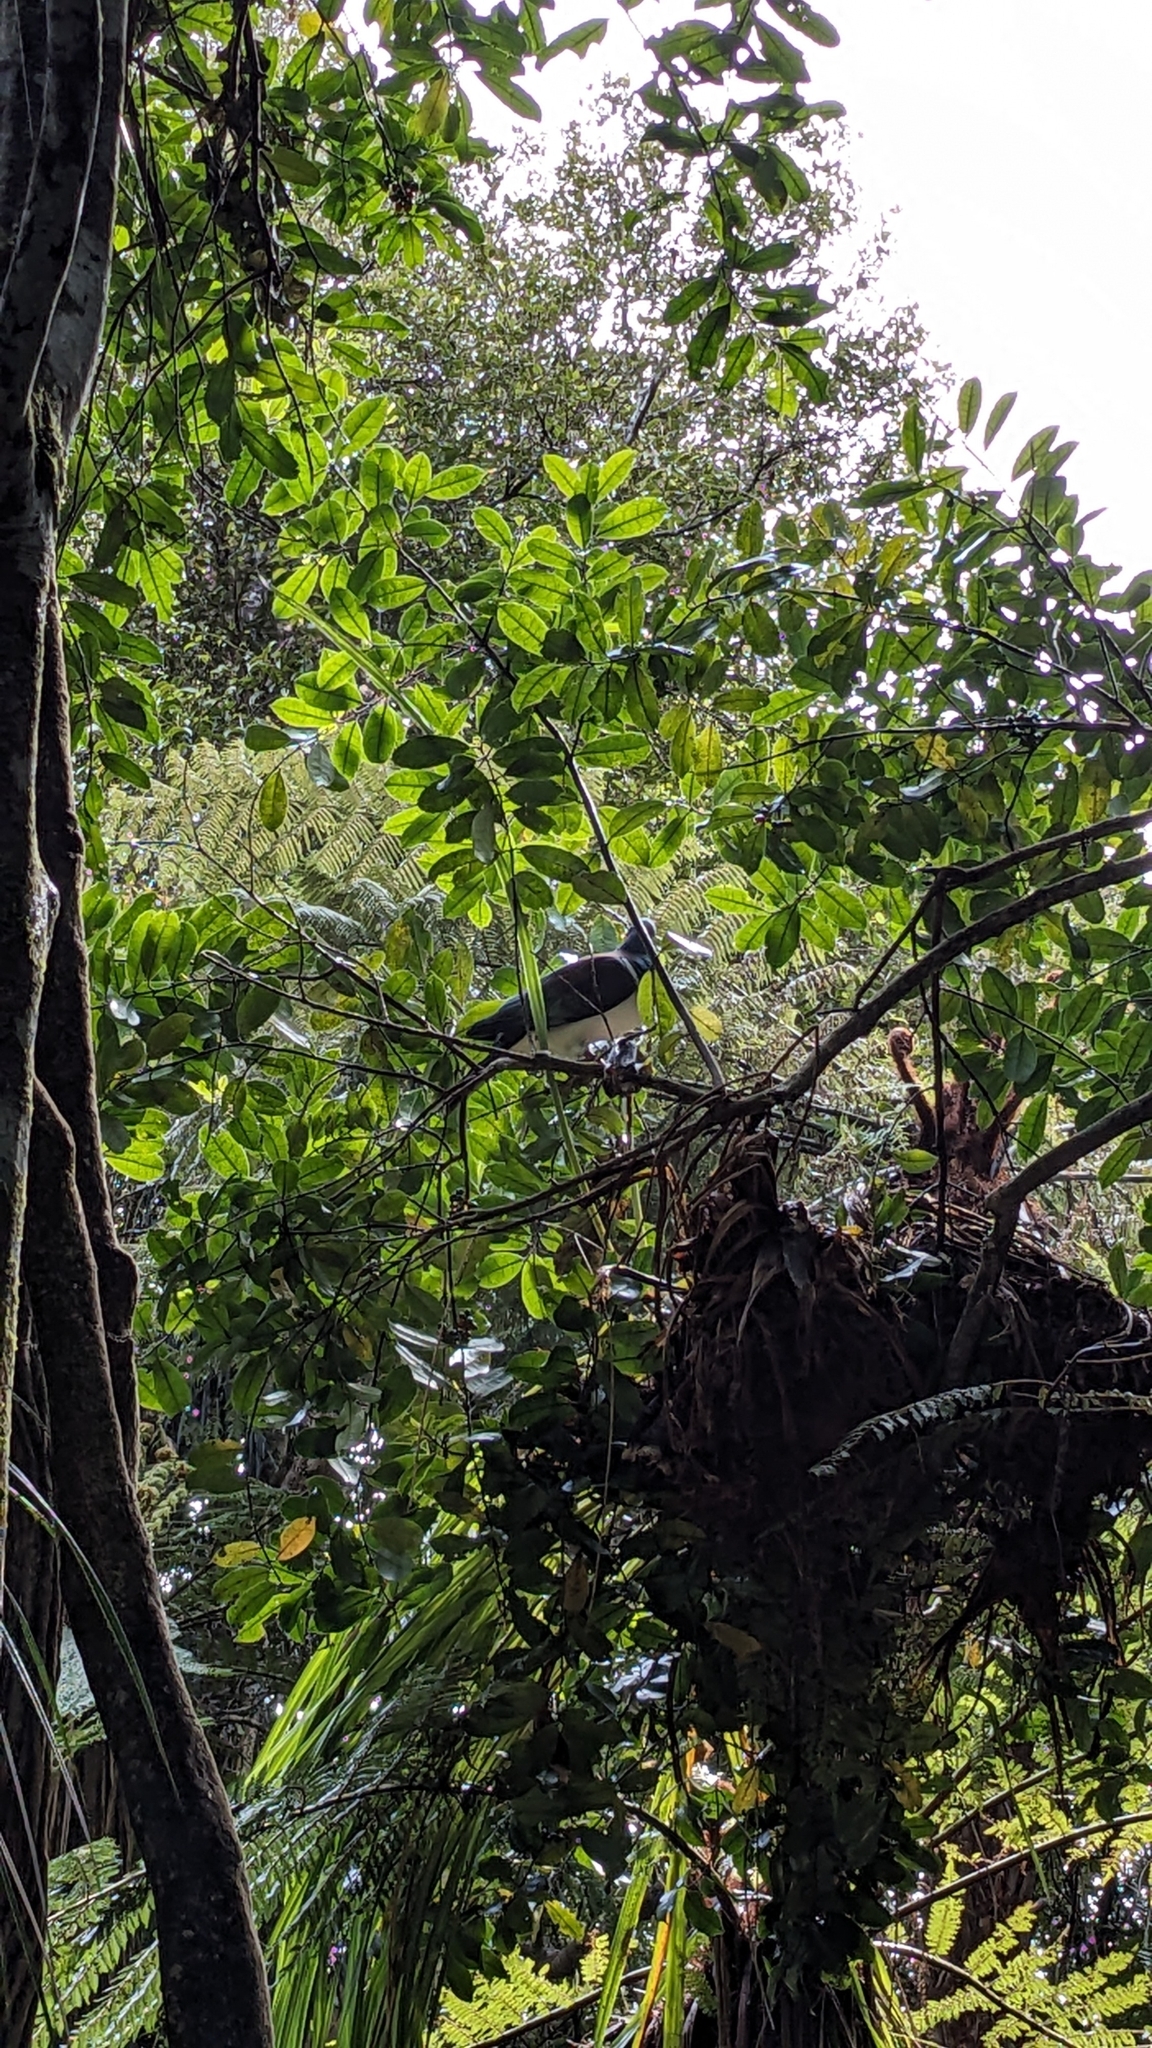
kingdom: Animalia
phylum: Chordata
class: Aves
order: Columbiformes
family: Columbidae
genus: Hemiphaga
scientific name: Hemiphaga novaeseelandiae
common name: New zealand pigeon
